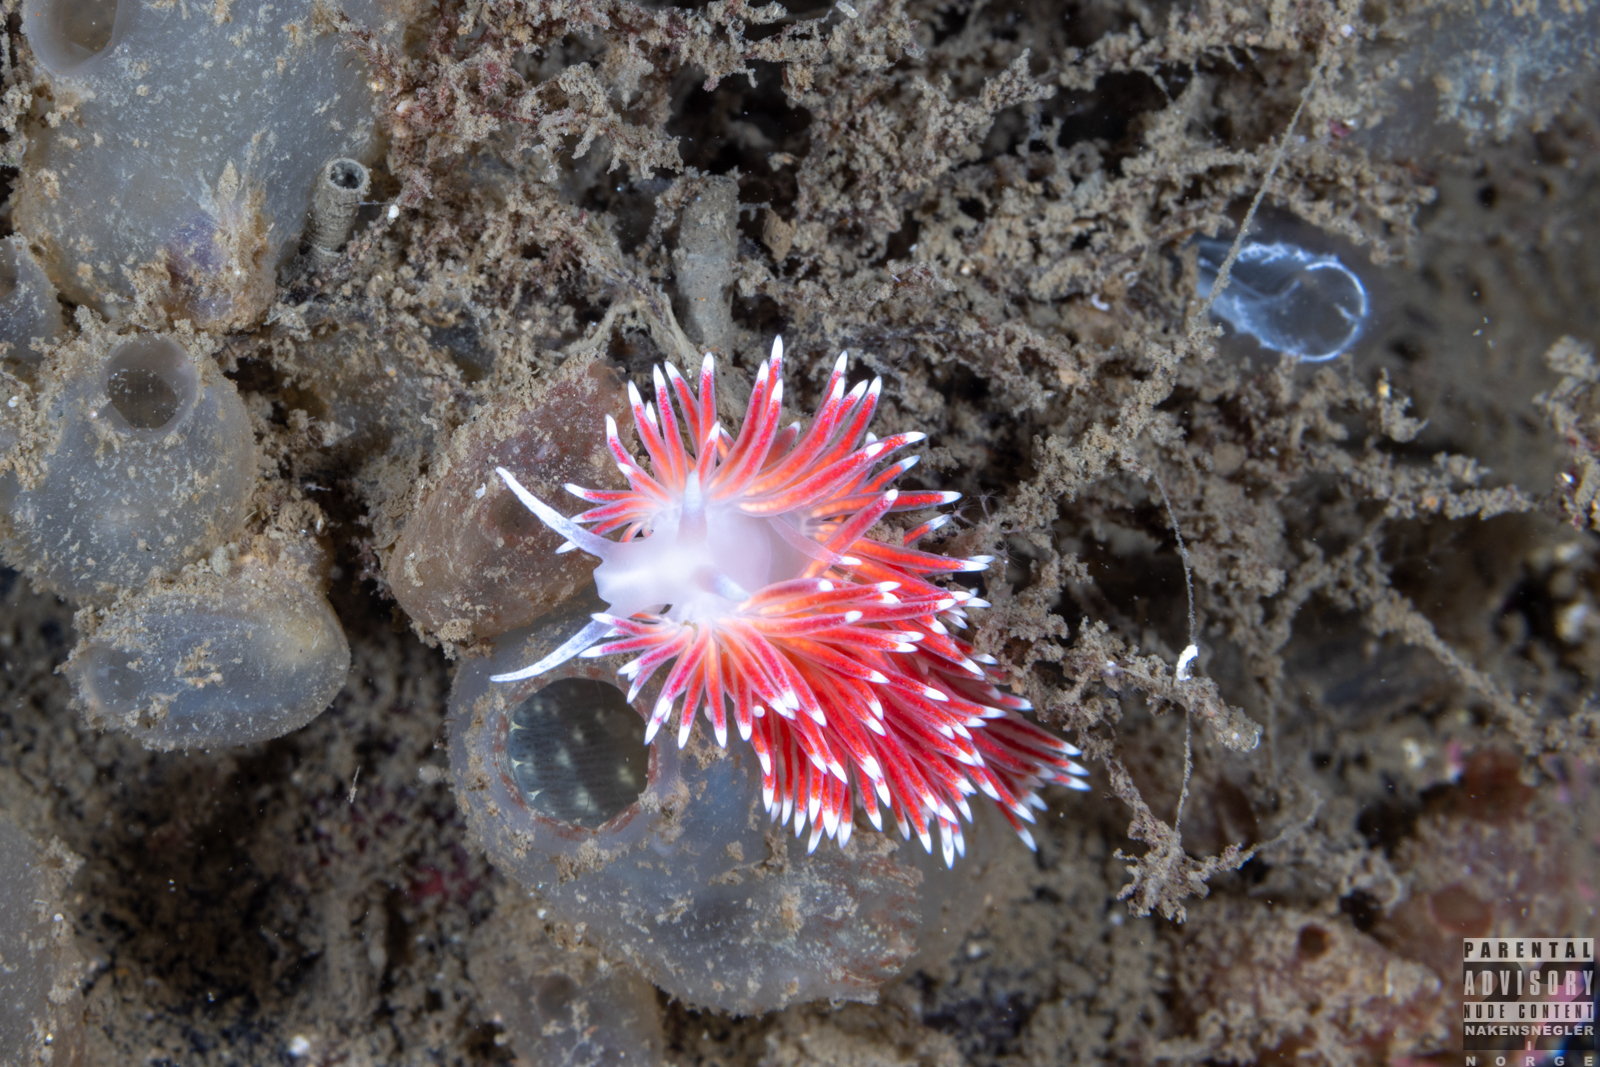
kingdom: Animalia
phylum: Mollusca
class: Gastropoda
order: Nudibranchia
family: Flabellinidae
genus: Carronella
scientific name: Carronella pellucida
